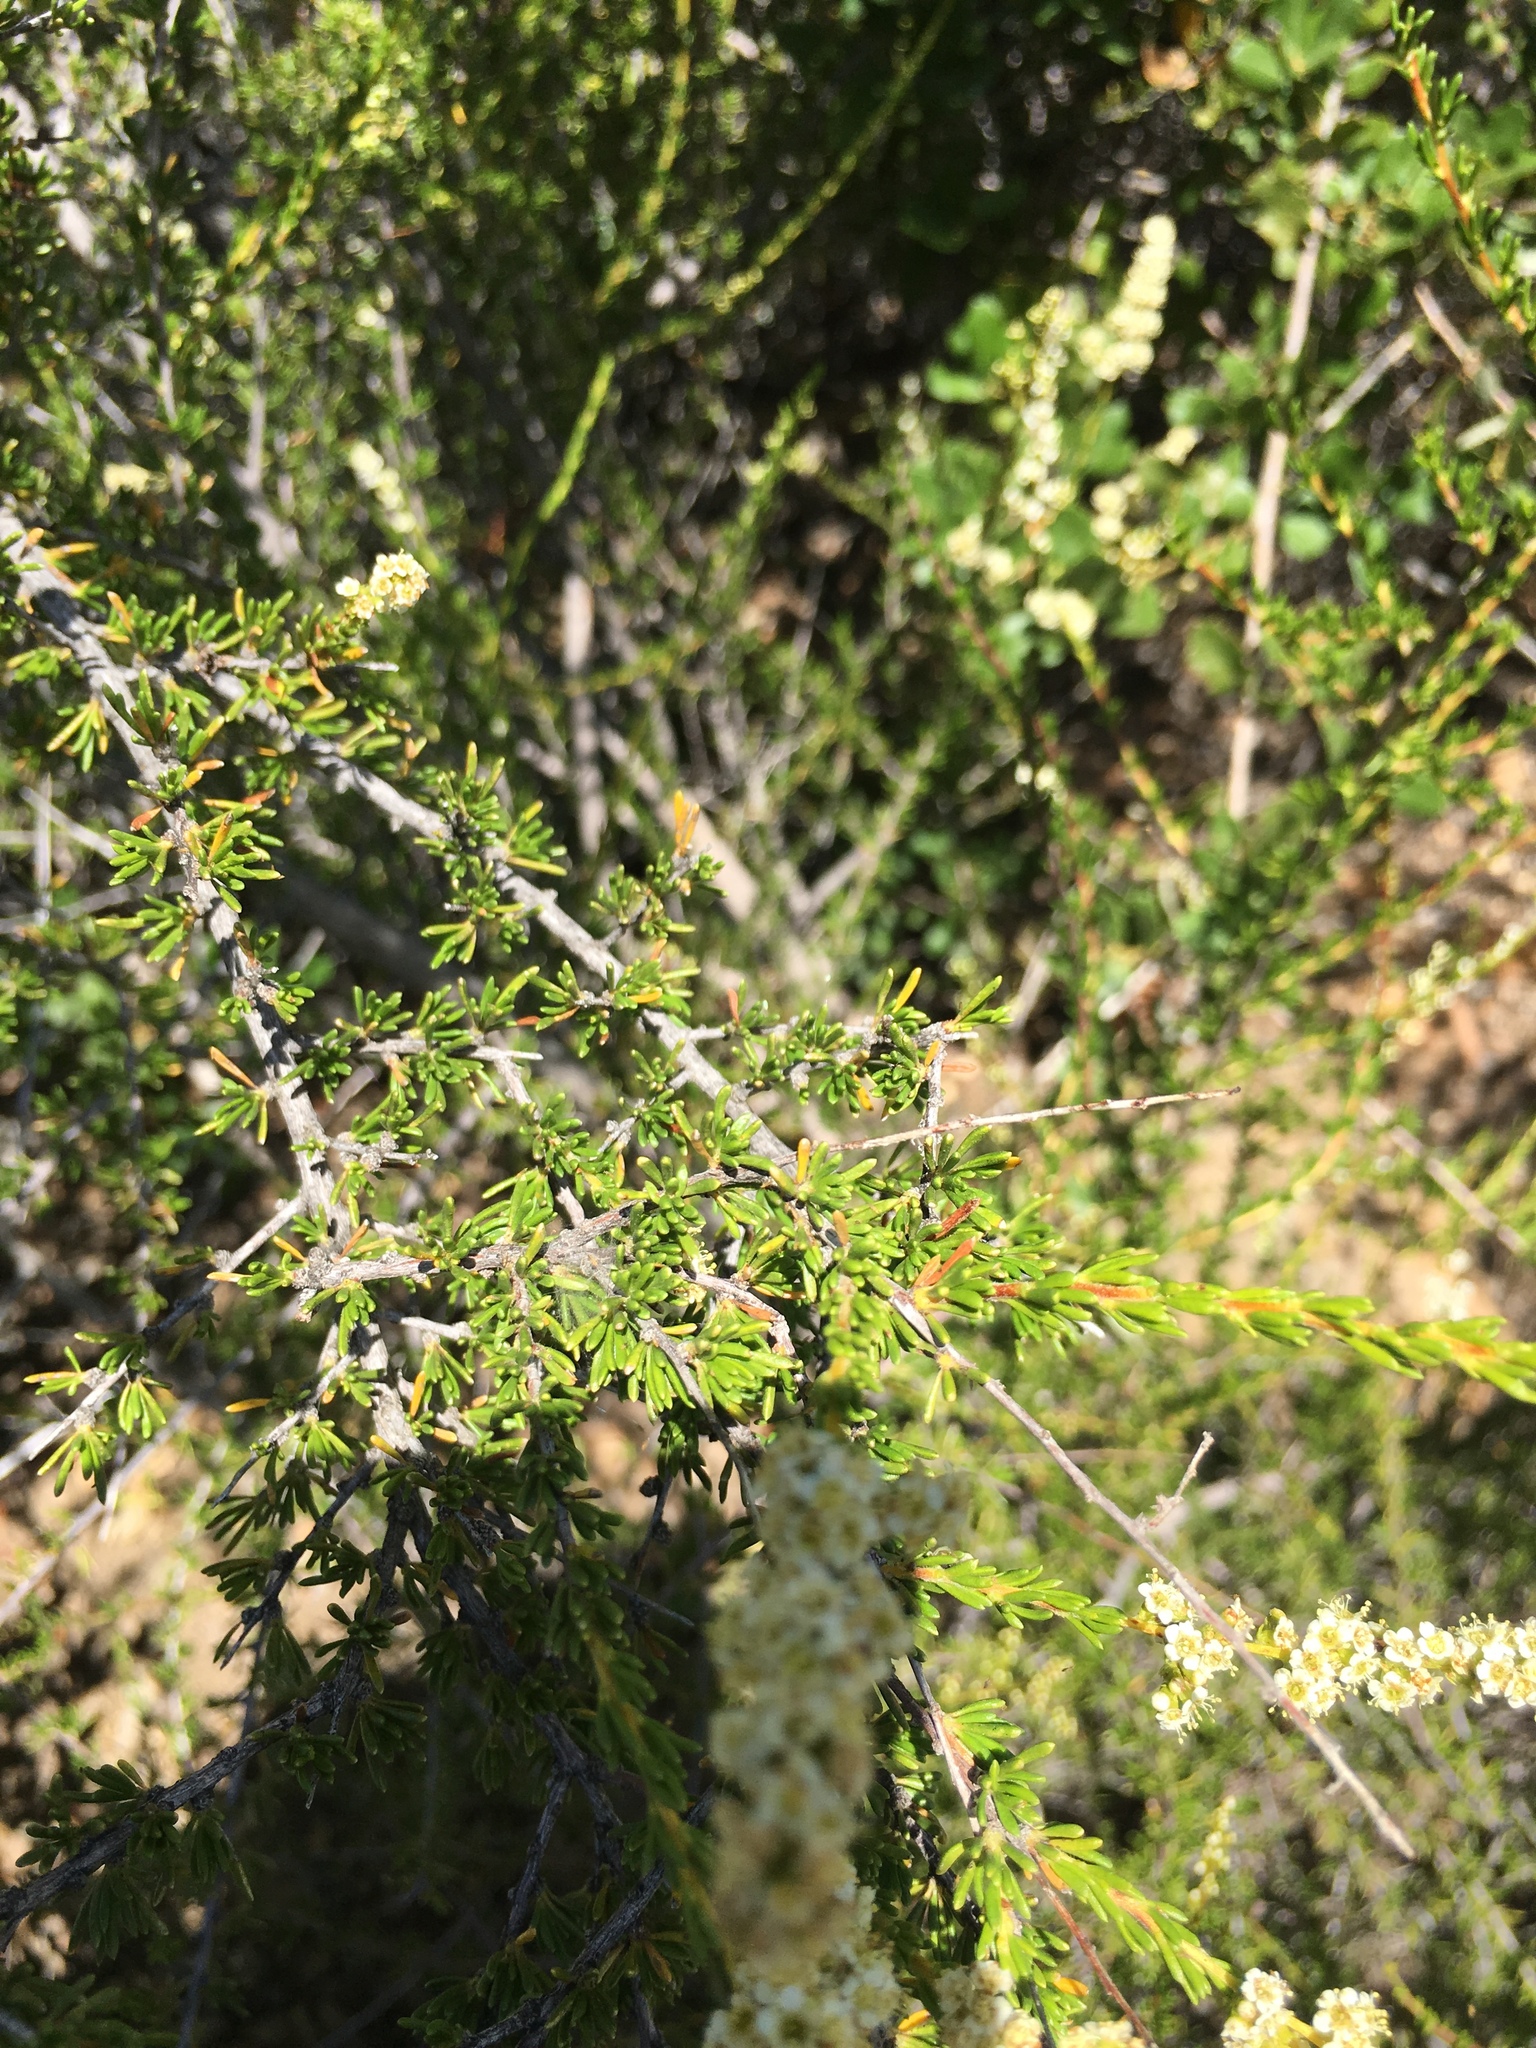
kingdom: Plantae
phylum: Tracheophyta
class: Magnoliopsida
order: Rosales
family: Rosaceae
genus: Adenostoma
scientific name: Adenostoma fasciculatum
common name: Chamise
